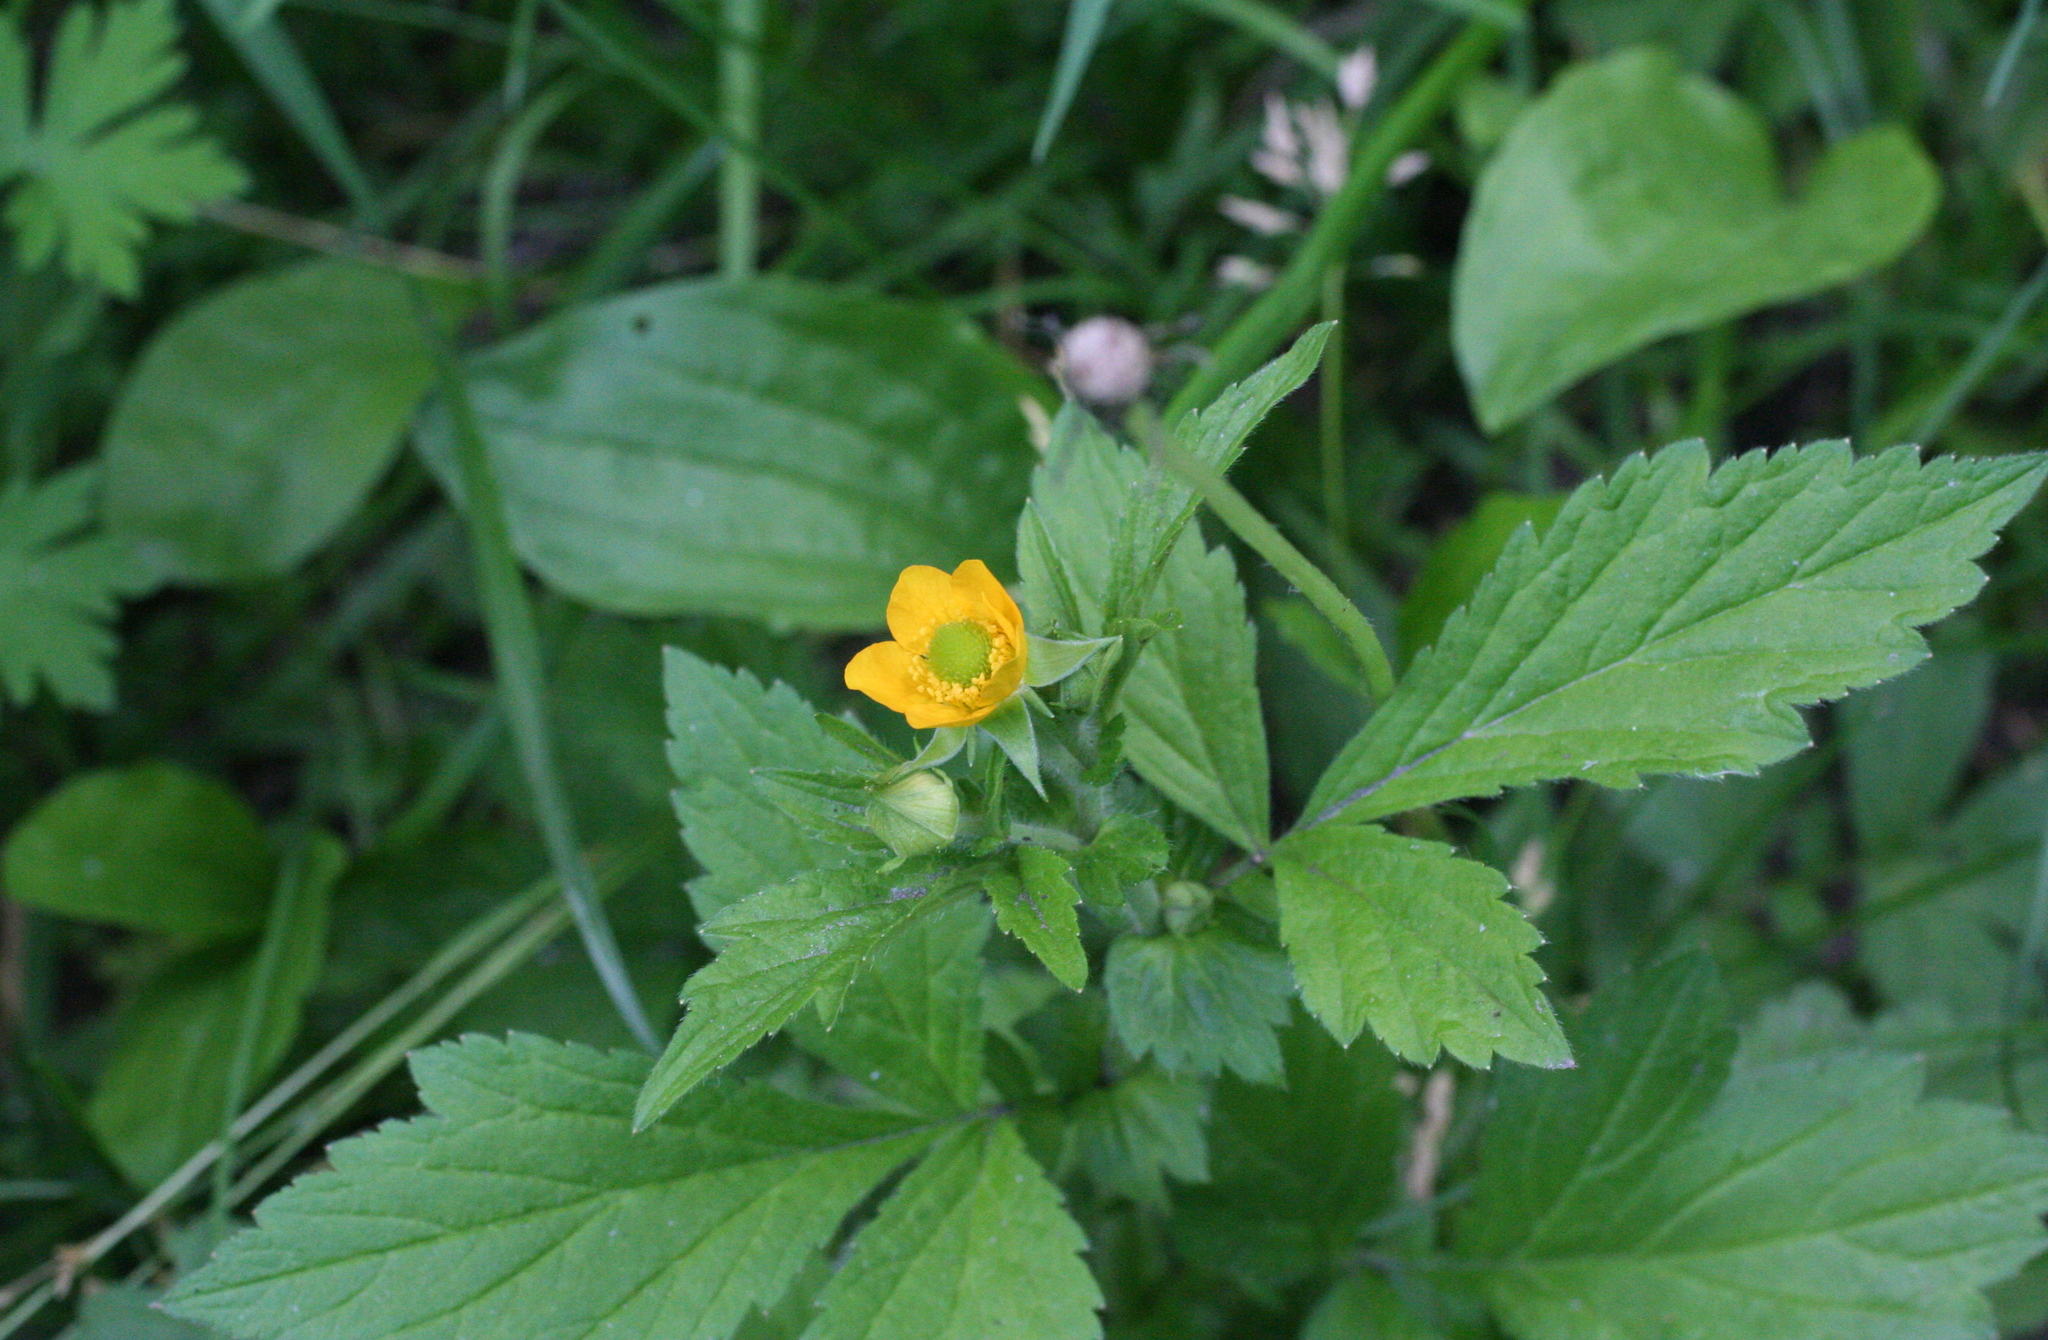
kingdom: Plantae
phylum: Tracheophyta
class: Magnoliopsida
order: Rosales
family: Rosaceae
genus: Geum
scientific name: Geum aleppicum
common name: Yellow avens
